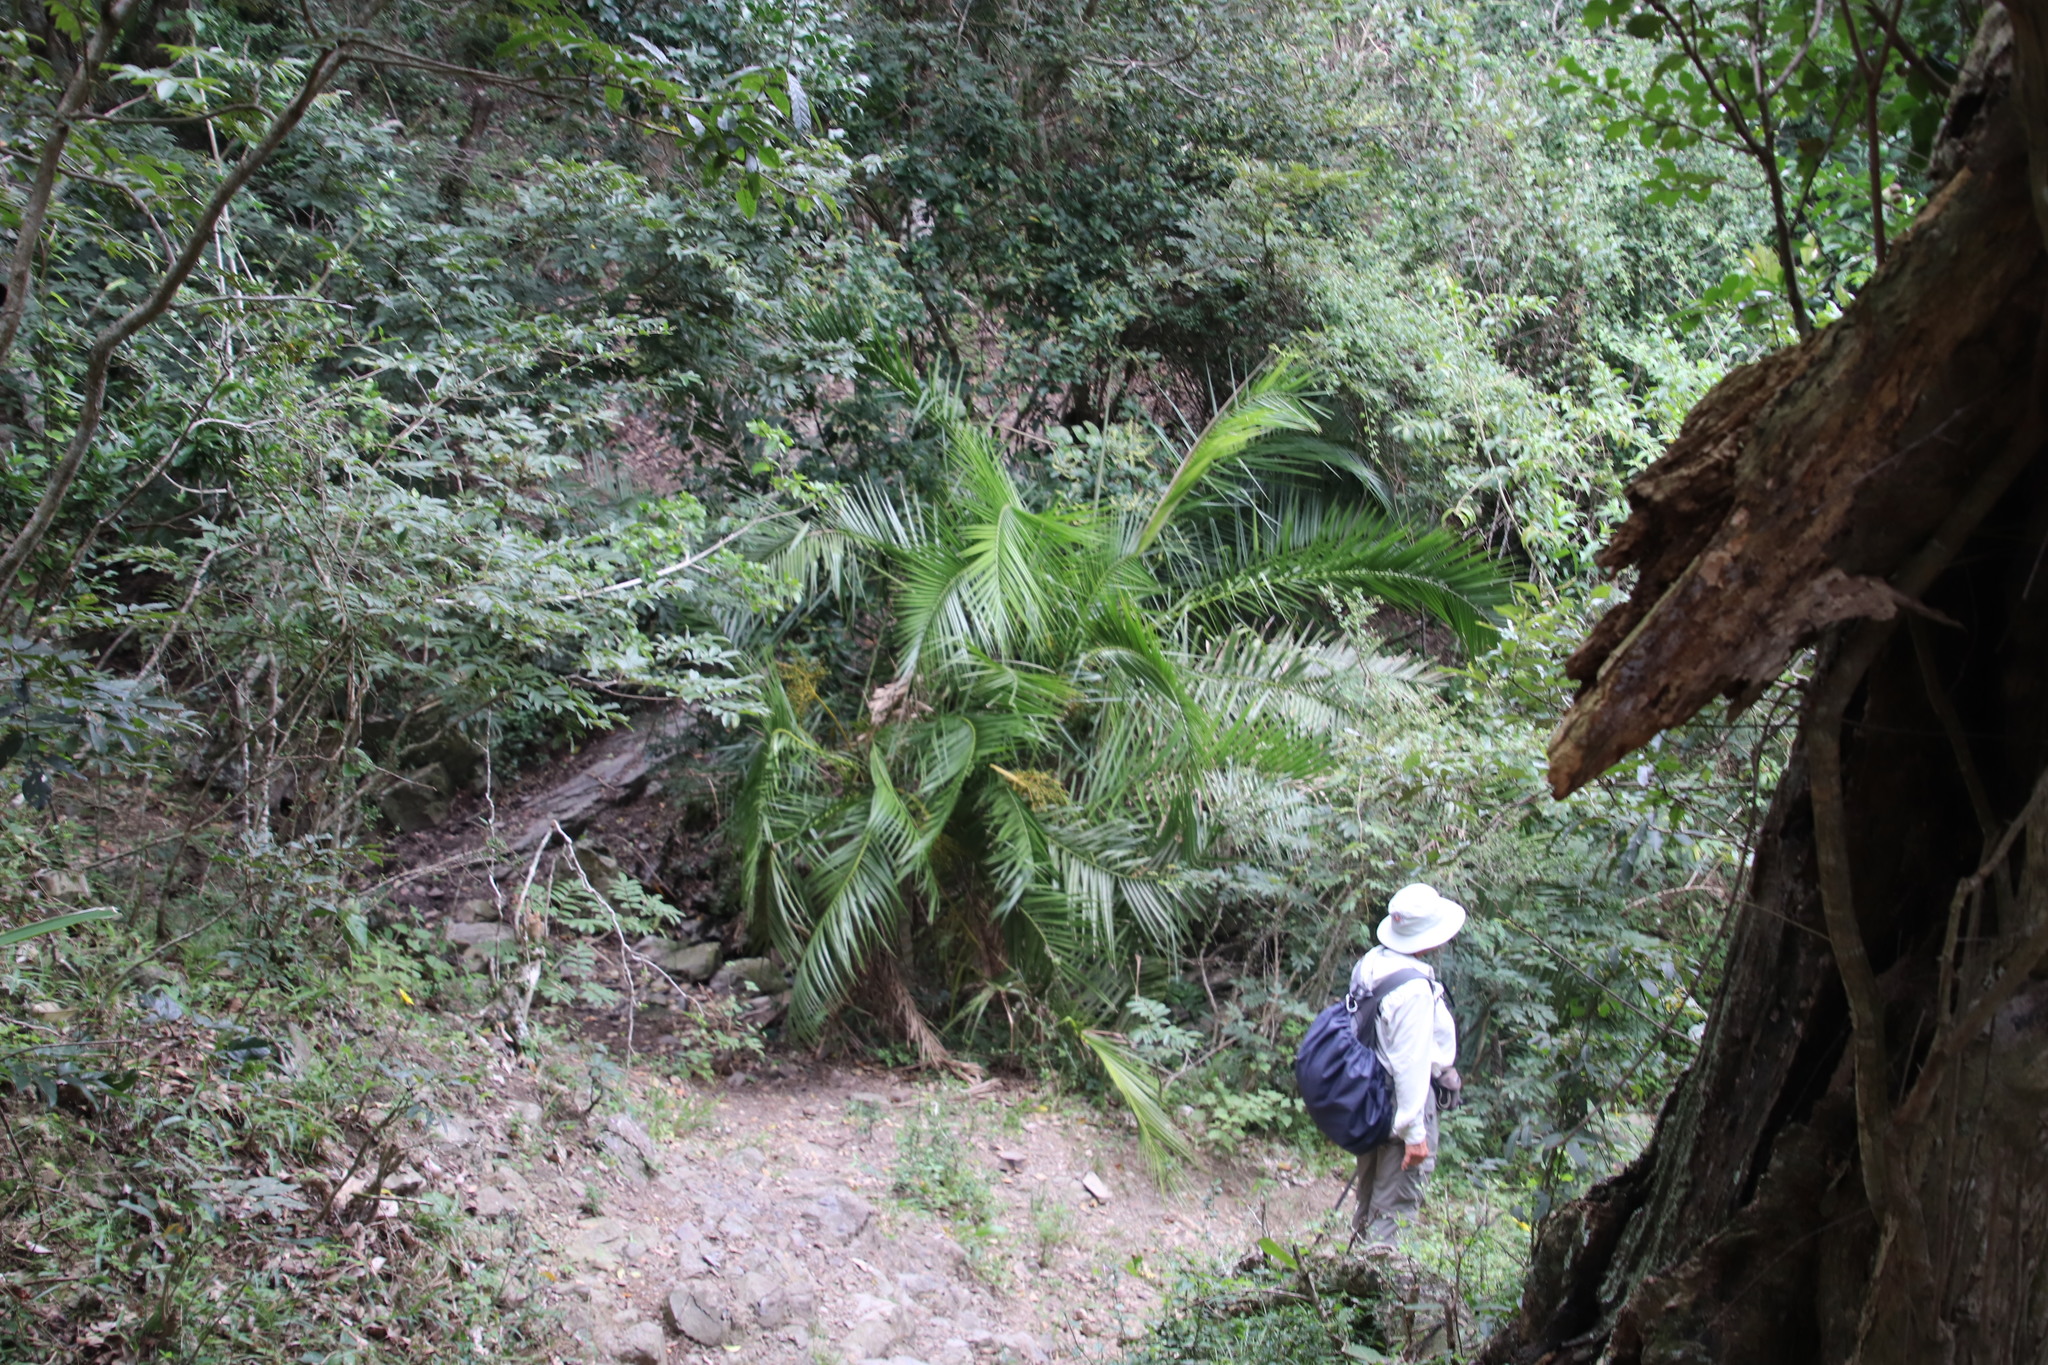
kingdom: Plantae
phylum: Tracheophyta
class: Liliopsida
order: Arecales
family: Arecaceae
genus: Phoenix
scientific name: Phoenix reclinata
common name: Senegal date palm
